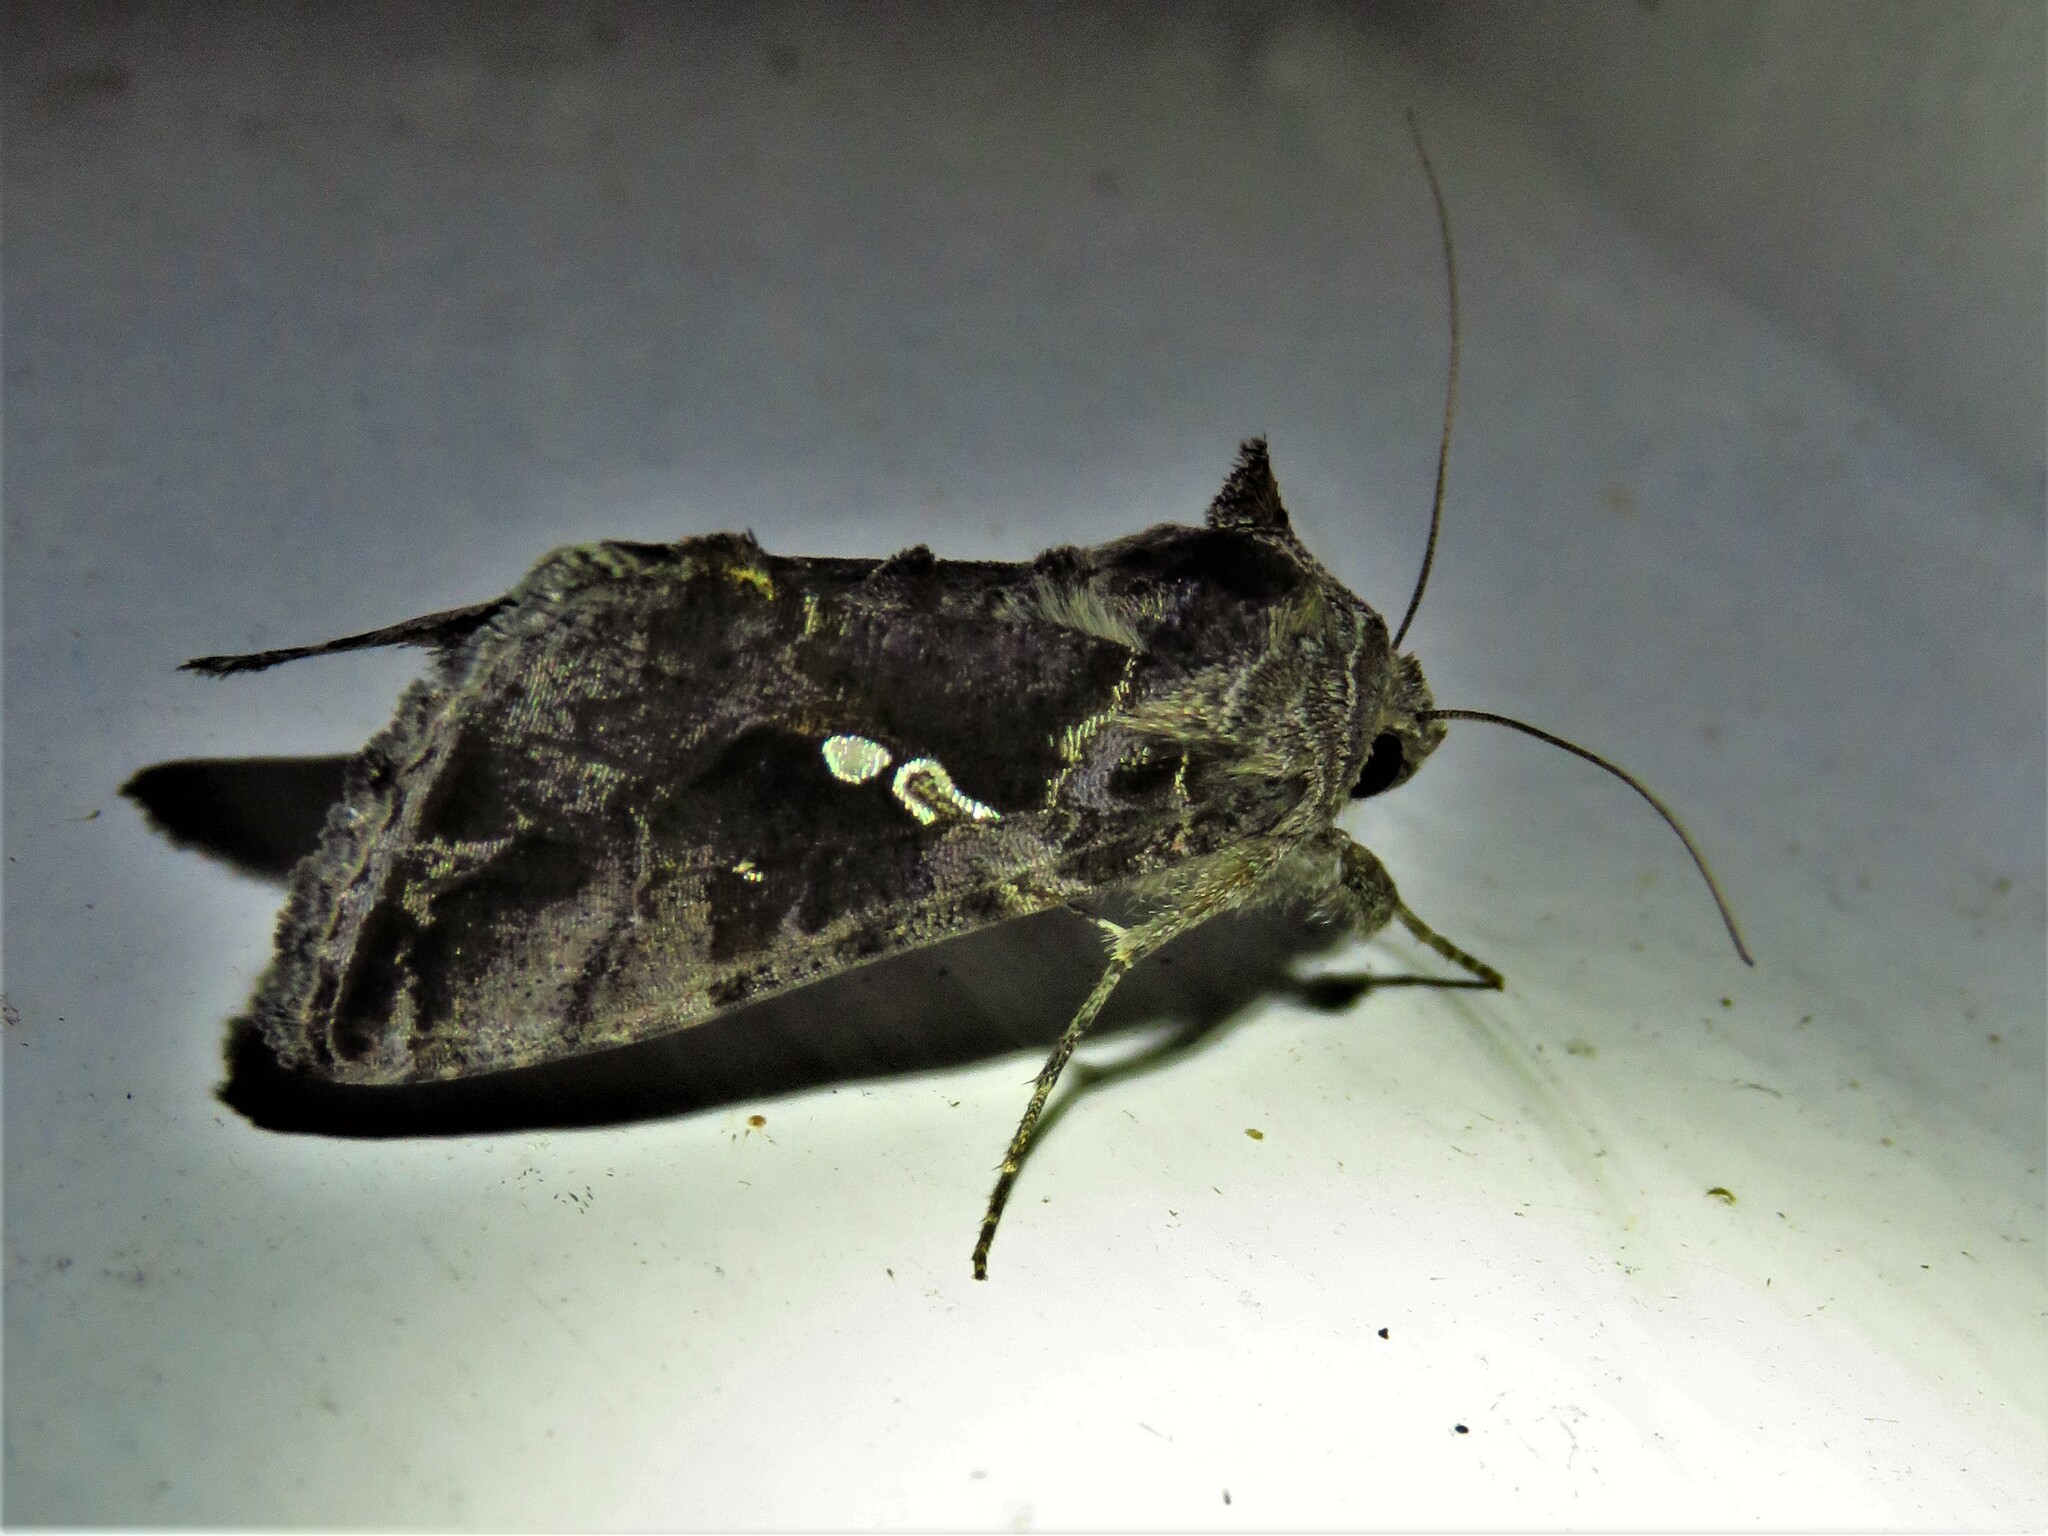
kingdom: Animalia
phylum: Arthropoda
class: Insecta
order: Lepidoptera
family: Noctuidae
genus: Rachiplusia
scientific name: Rachiplusia ou
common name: Gray looper moth
